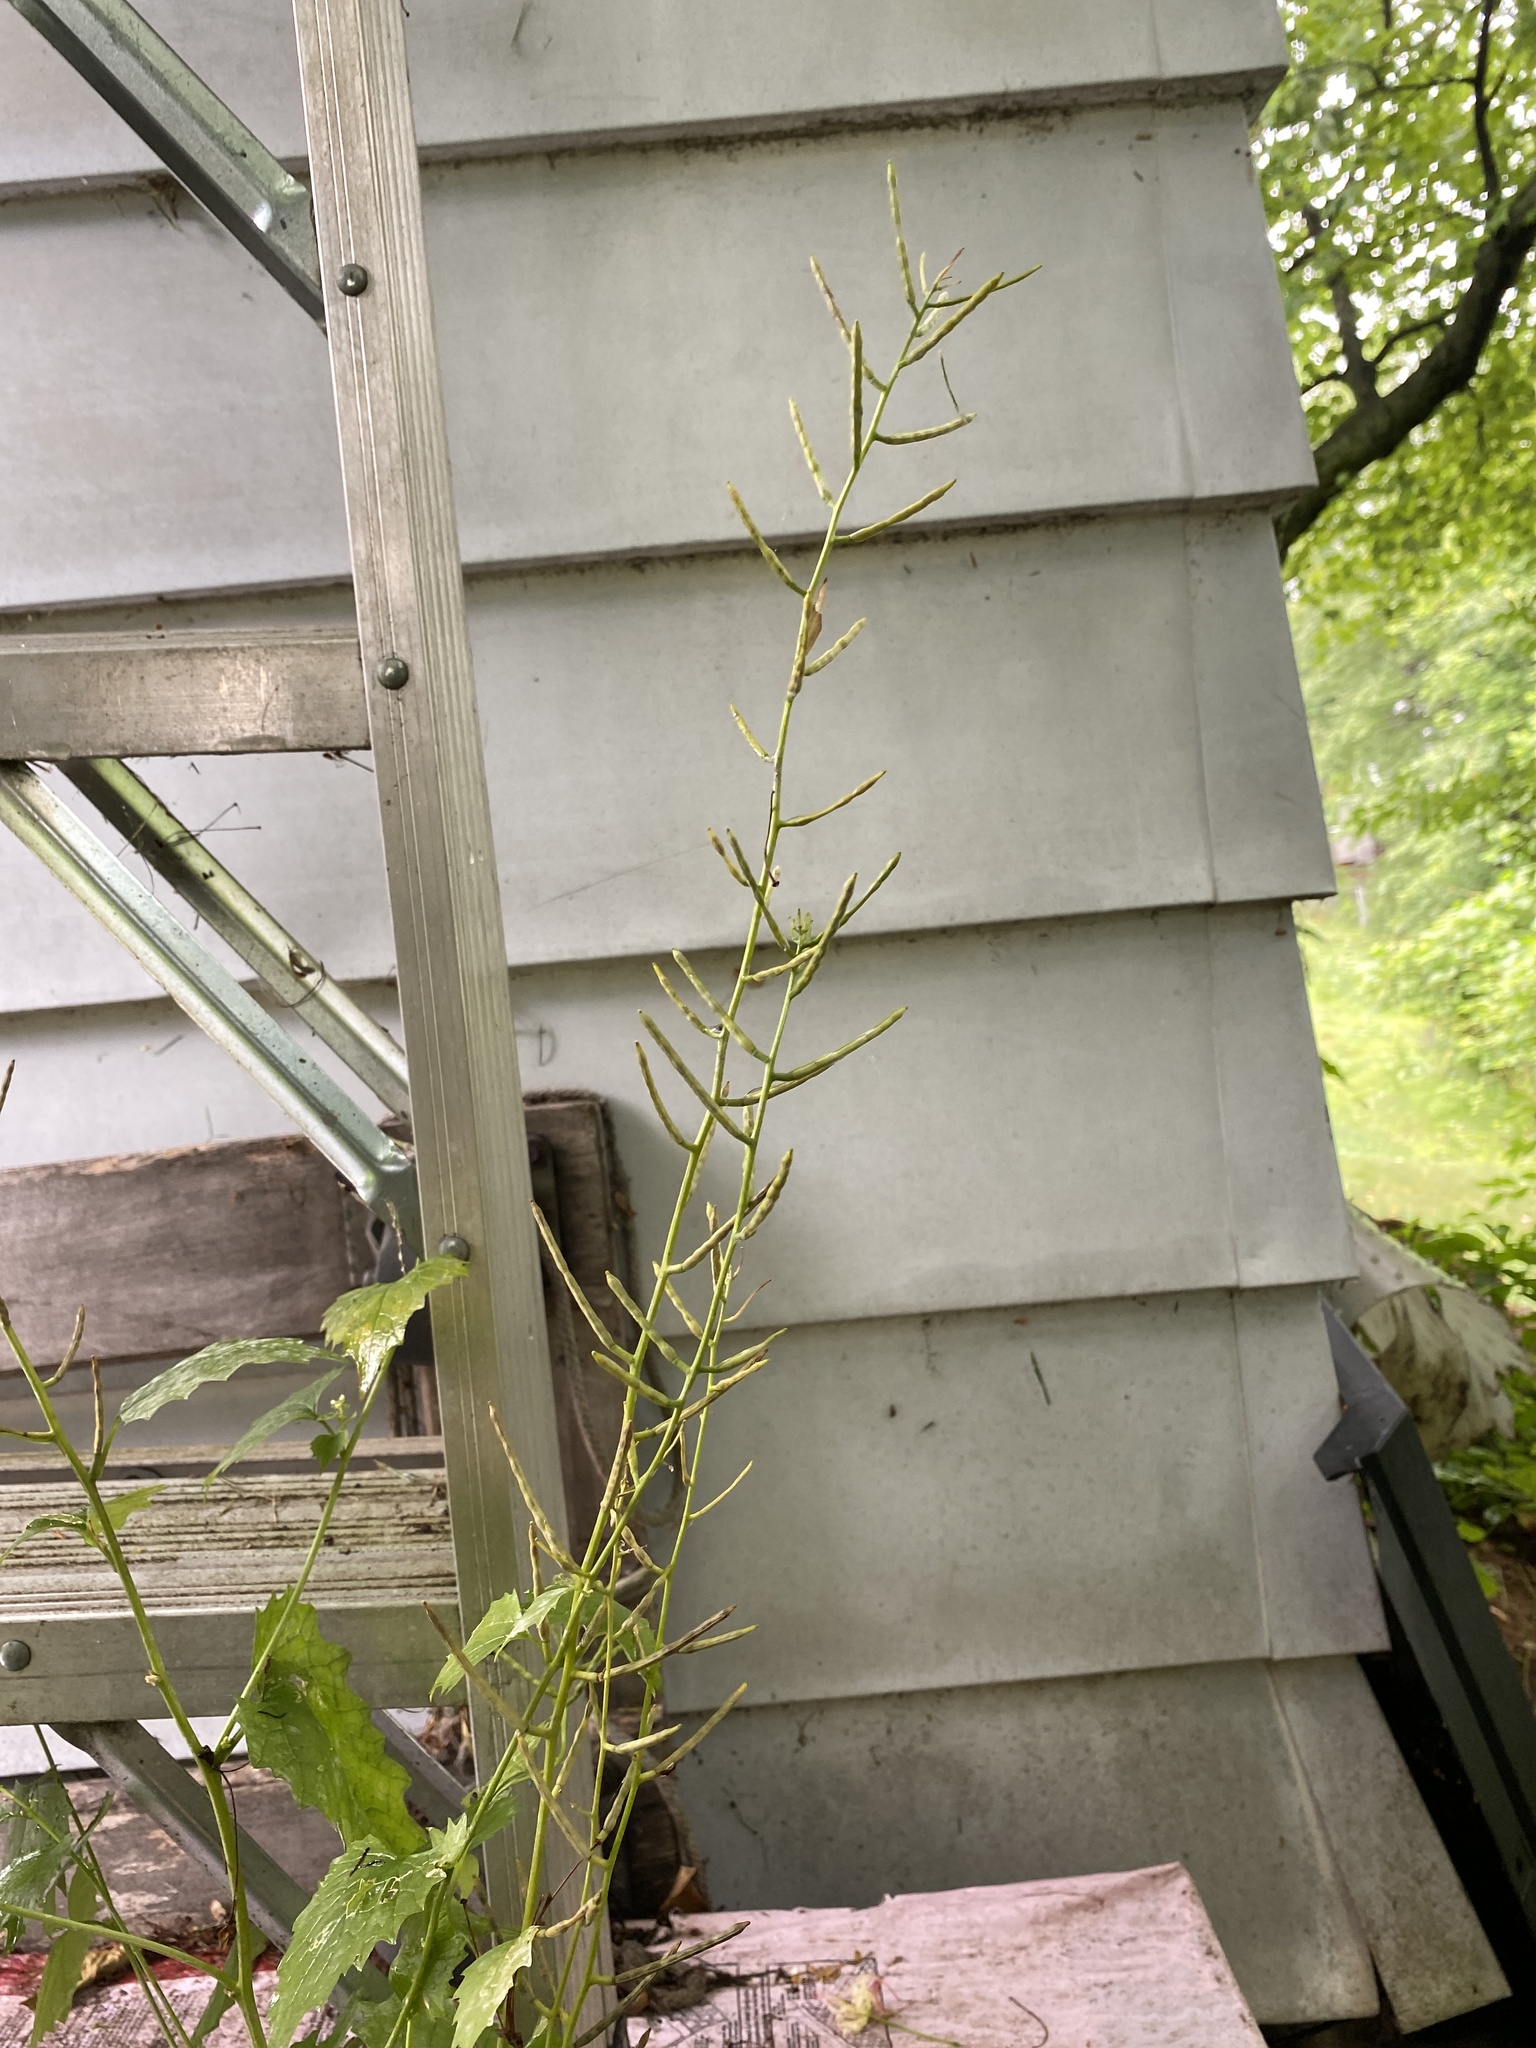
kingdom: Plantae
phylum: Tracheophyta
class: Magnoliopsida
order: Brassicales
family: Brassicaceae
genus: Alliaria
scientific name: Alliaria petiolata
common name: Garlic mustard
